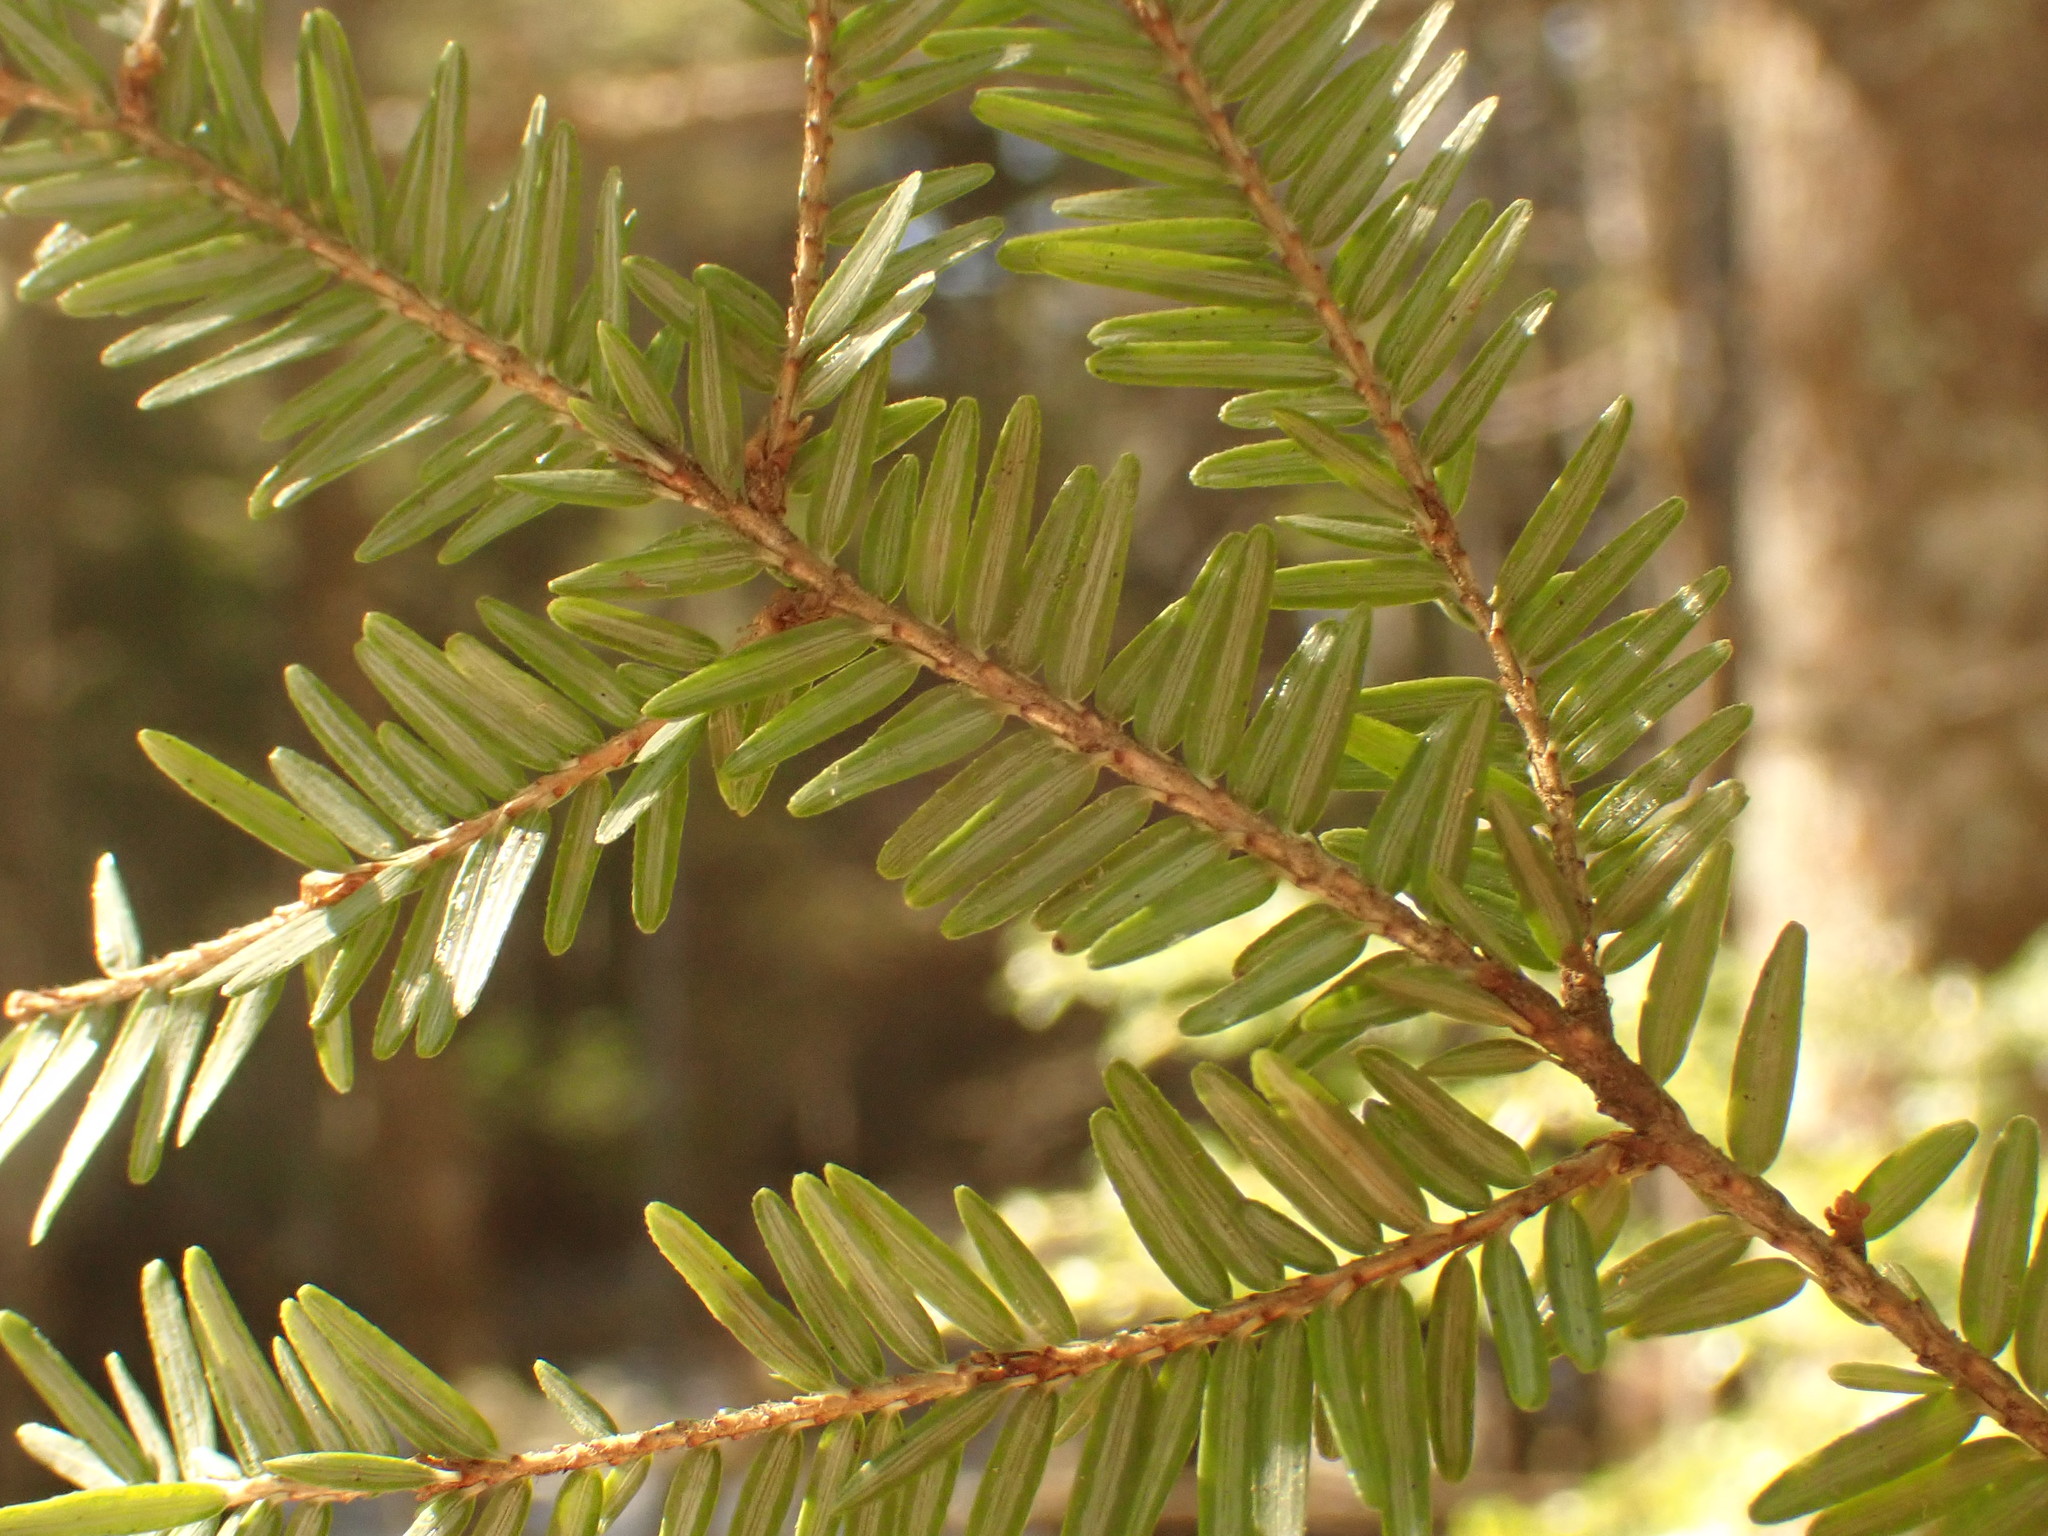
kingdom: Plantae
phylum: Tracheophyta
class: Pinopsida
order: Pinales
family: Pinaceae
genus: Tsuga
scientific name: Tsuga canadensis
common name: Eastern hemlock
